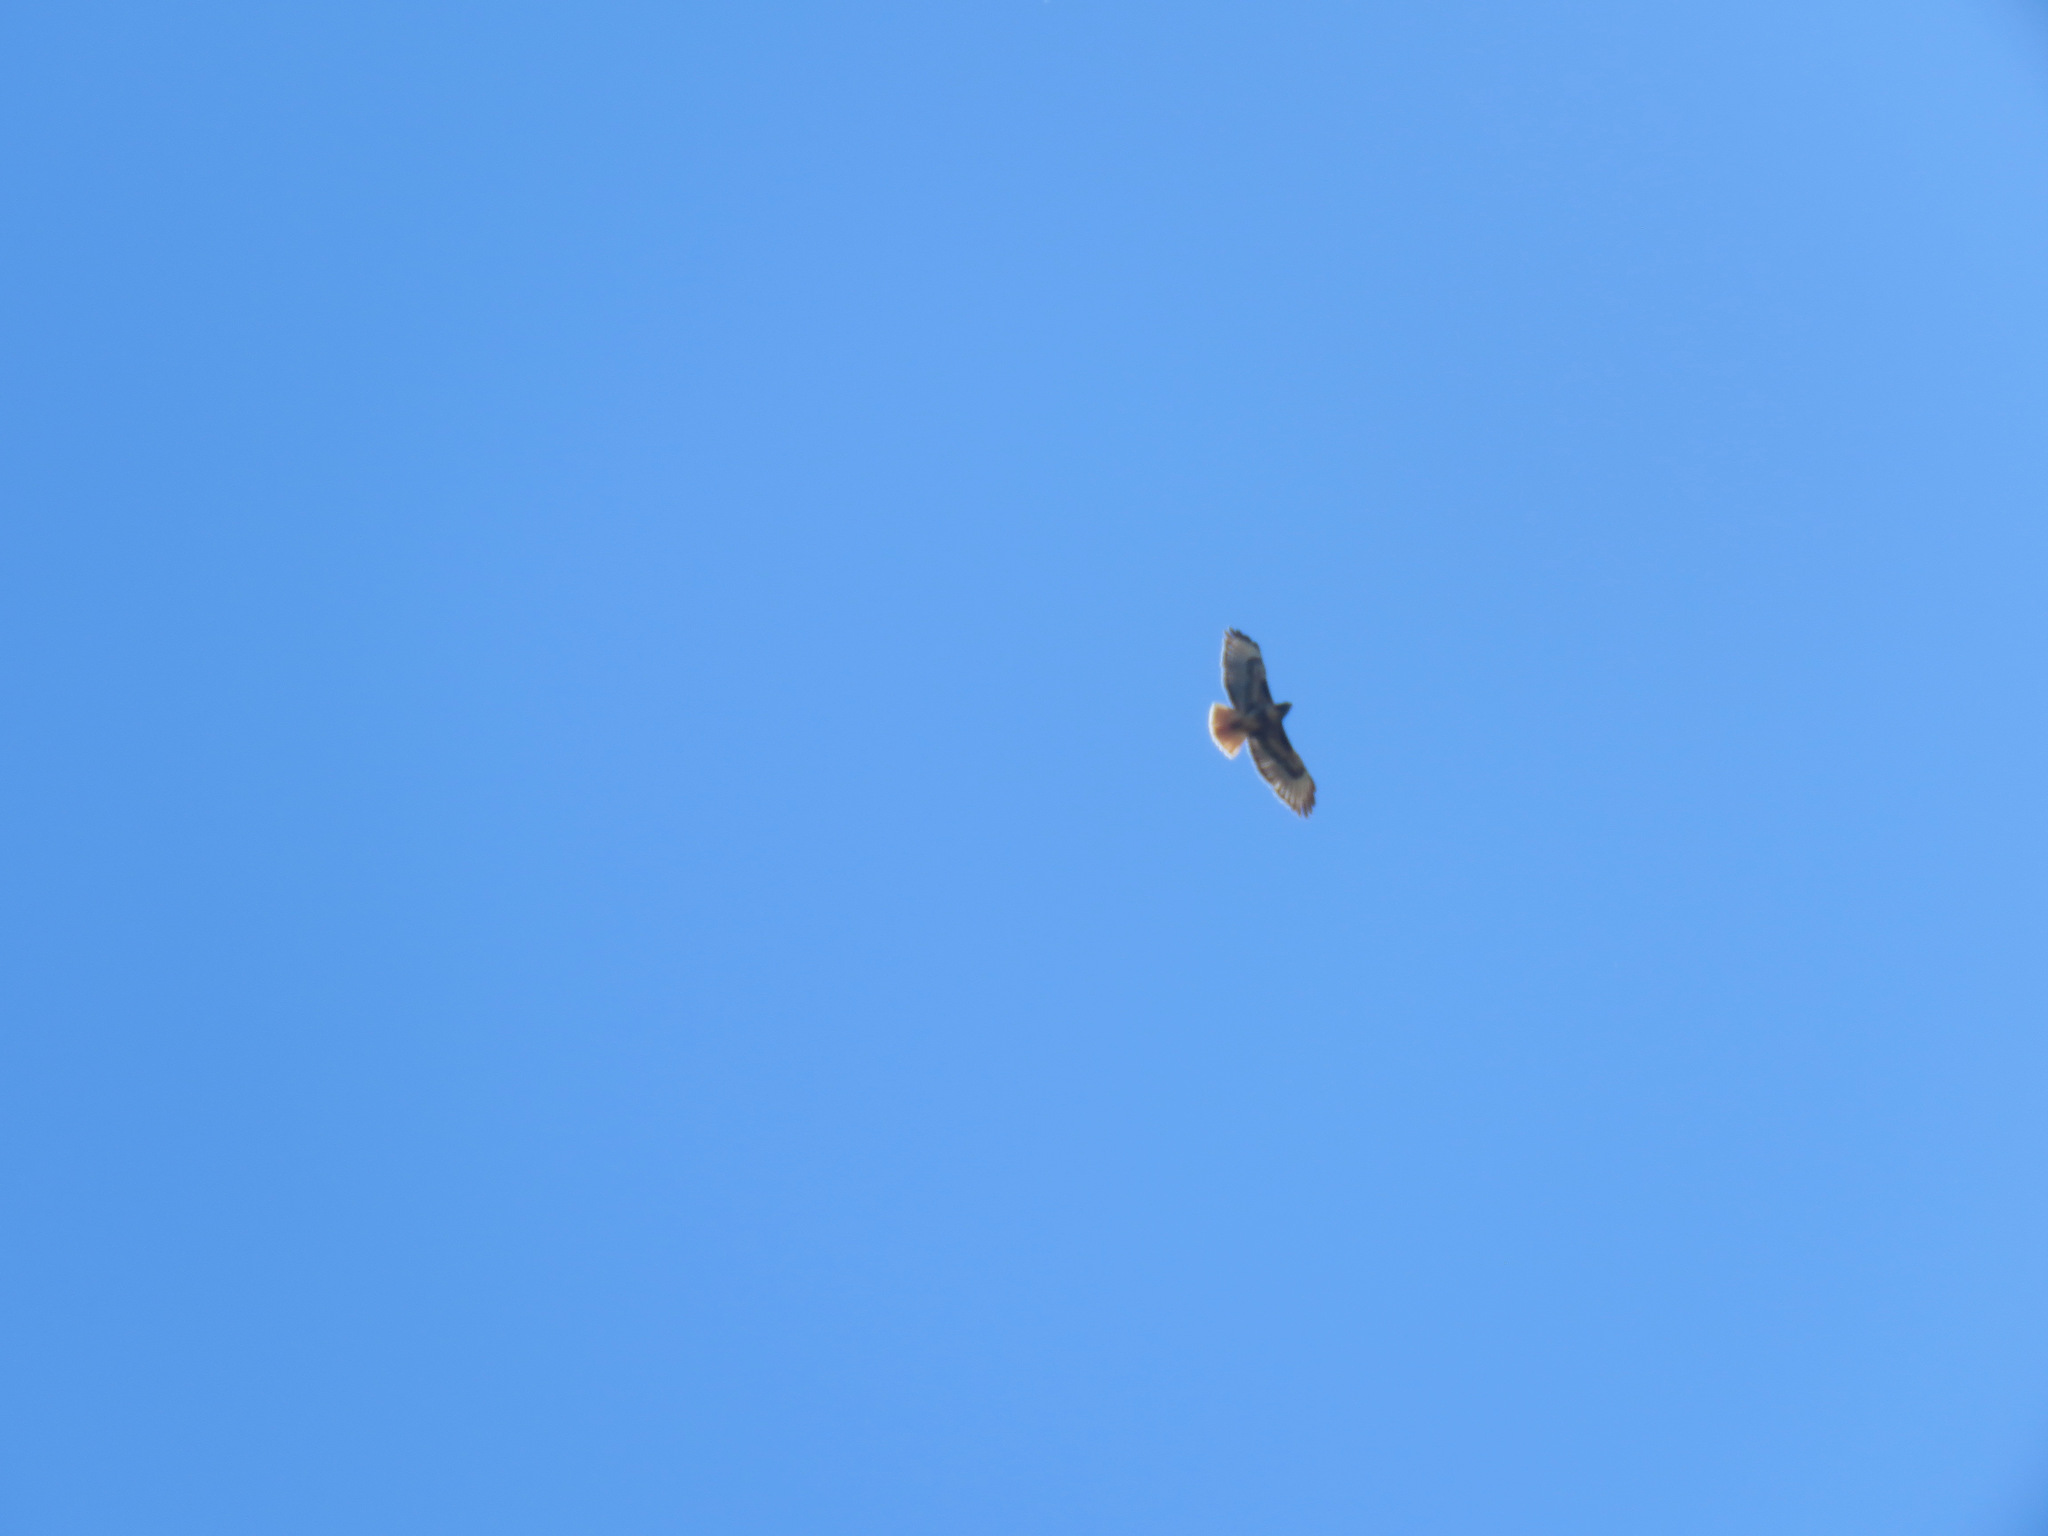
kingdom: Animalia
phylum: Chordata
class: Aves
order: Accipitriformes
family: Accipitridae
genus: Buteo
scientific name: Buteo jamaicensis
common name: Red-tailed hawk
